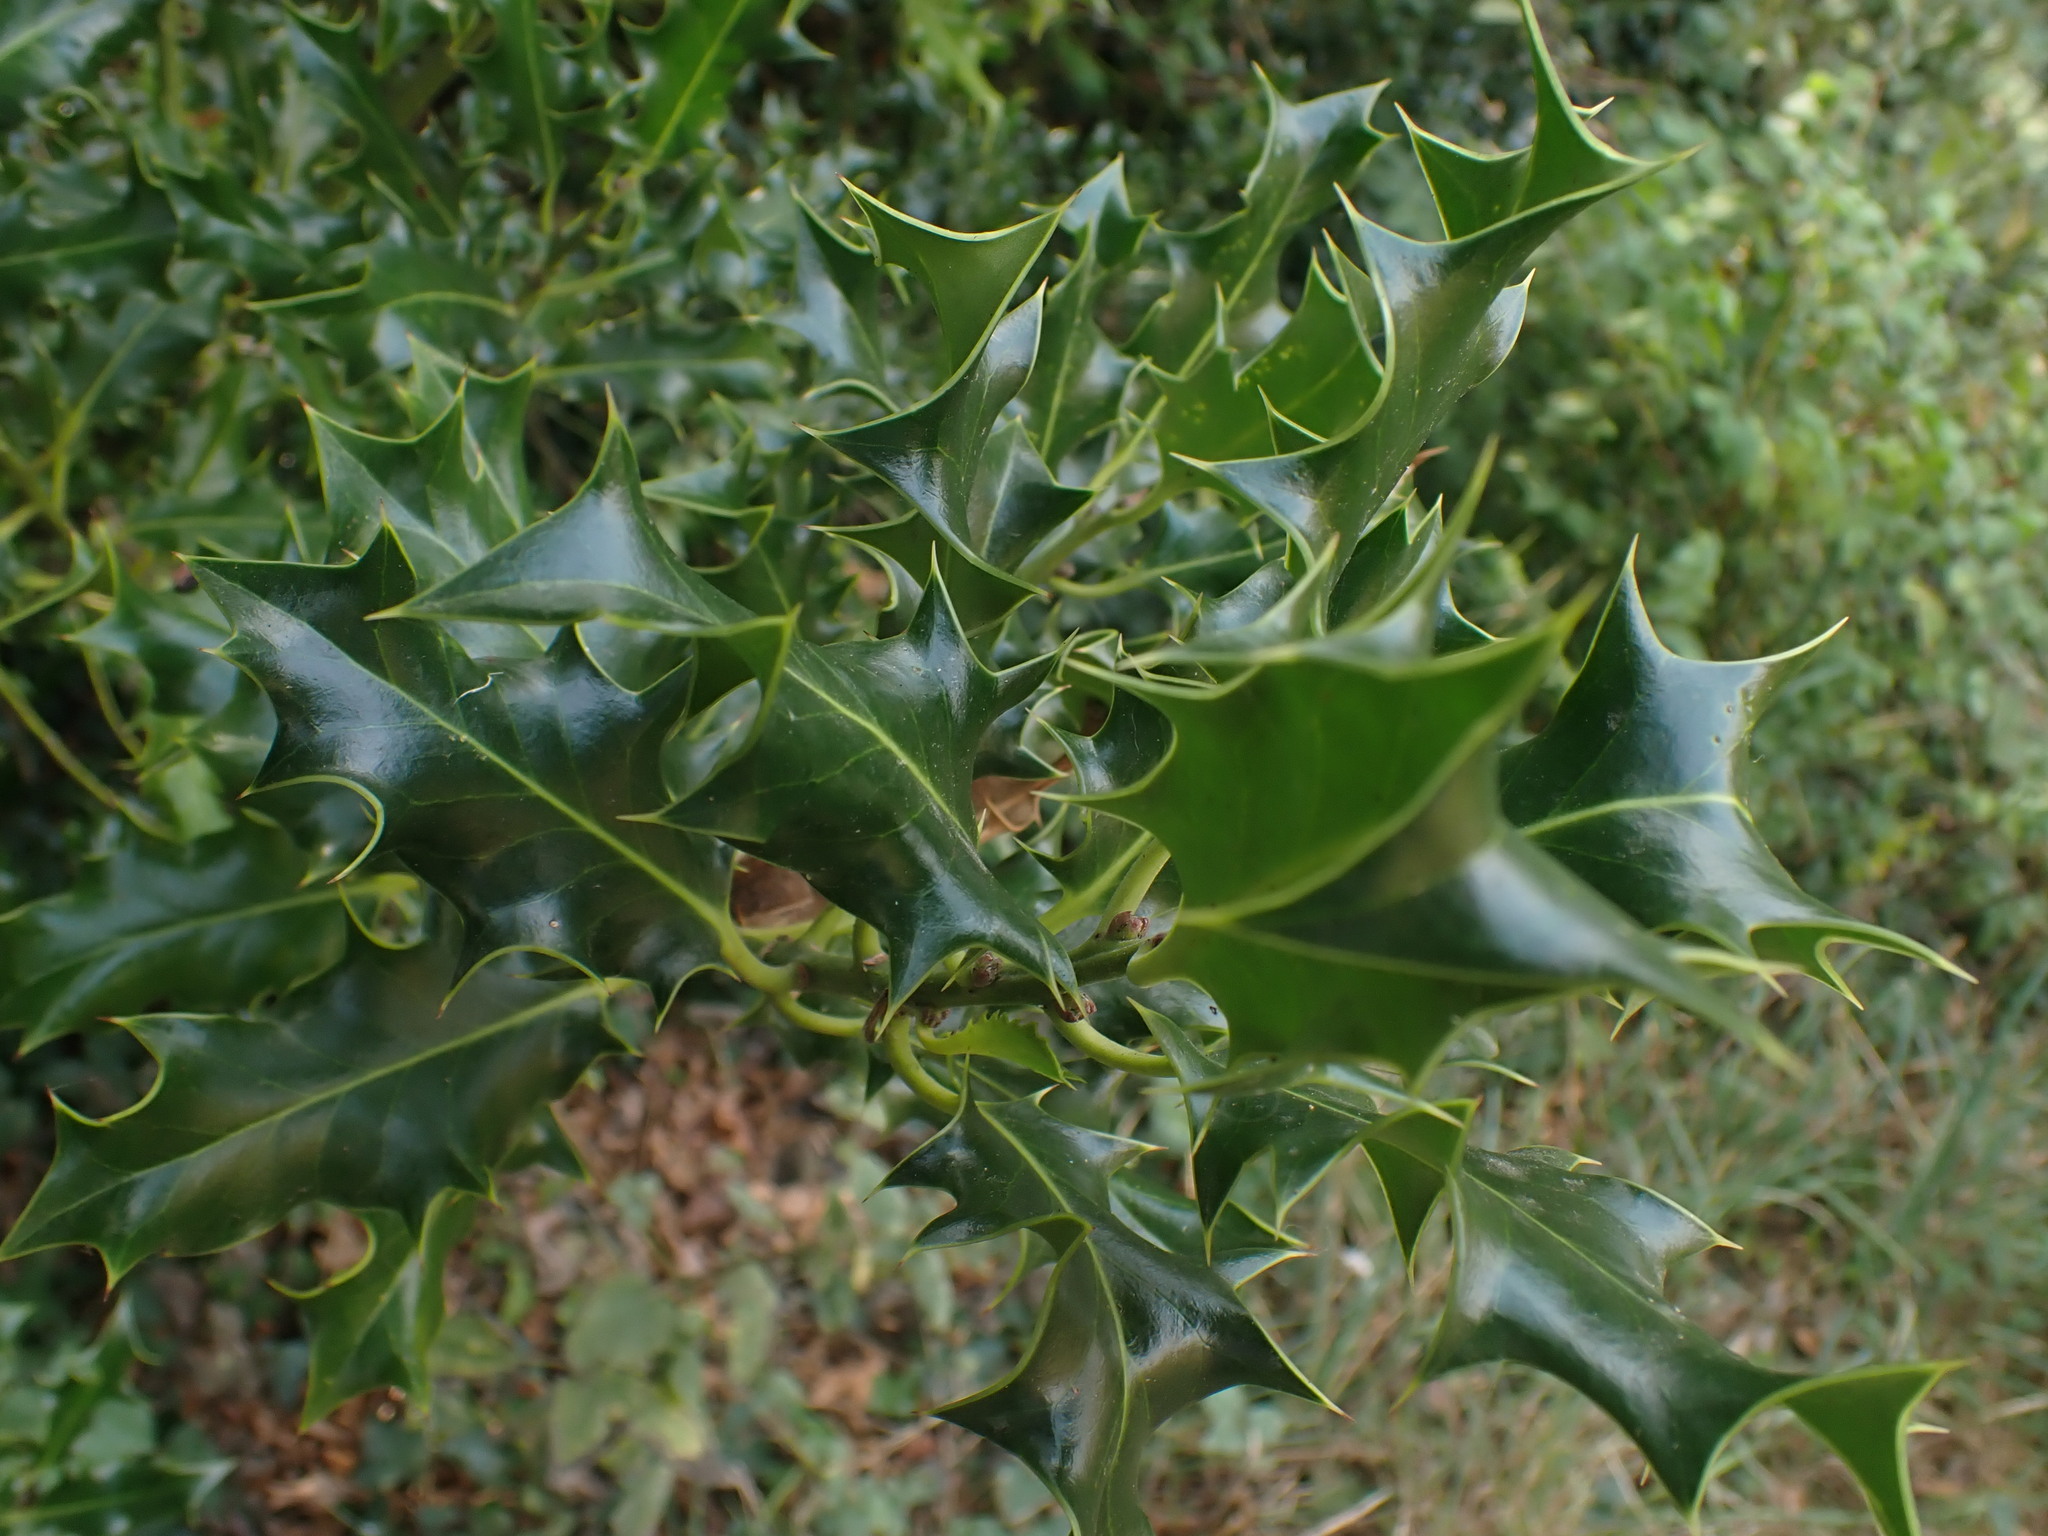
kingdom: Plantae
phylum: Tracheophyta
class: Magnoliopsida
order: Aquifoliales
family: Aquifoliaceae
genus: Ilex
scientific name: Ilex aquifolium
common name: English holly
